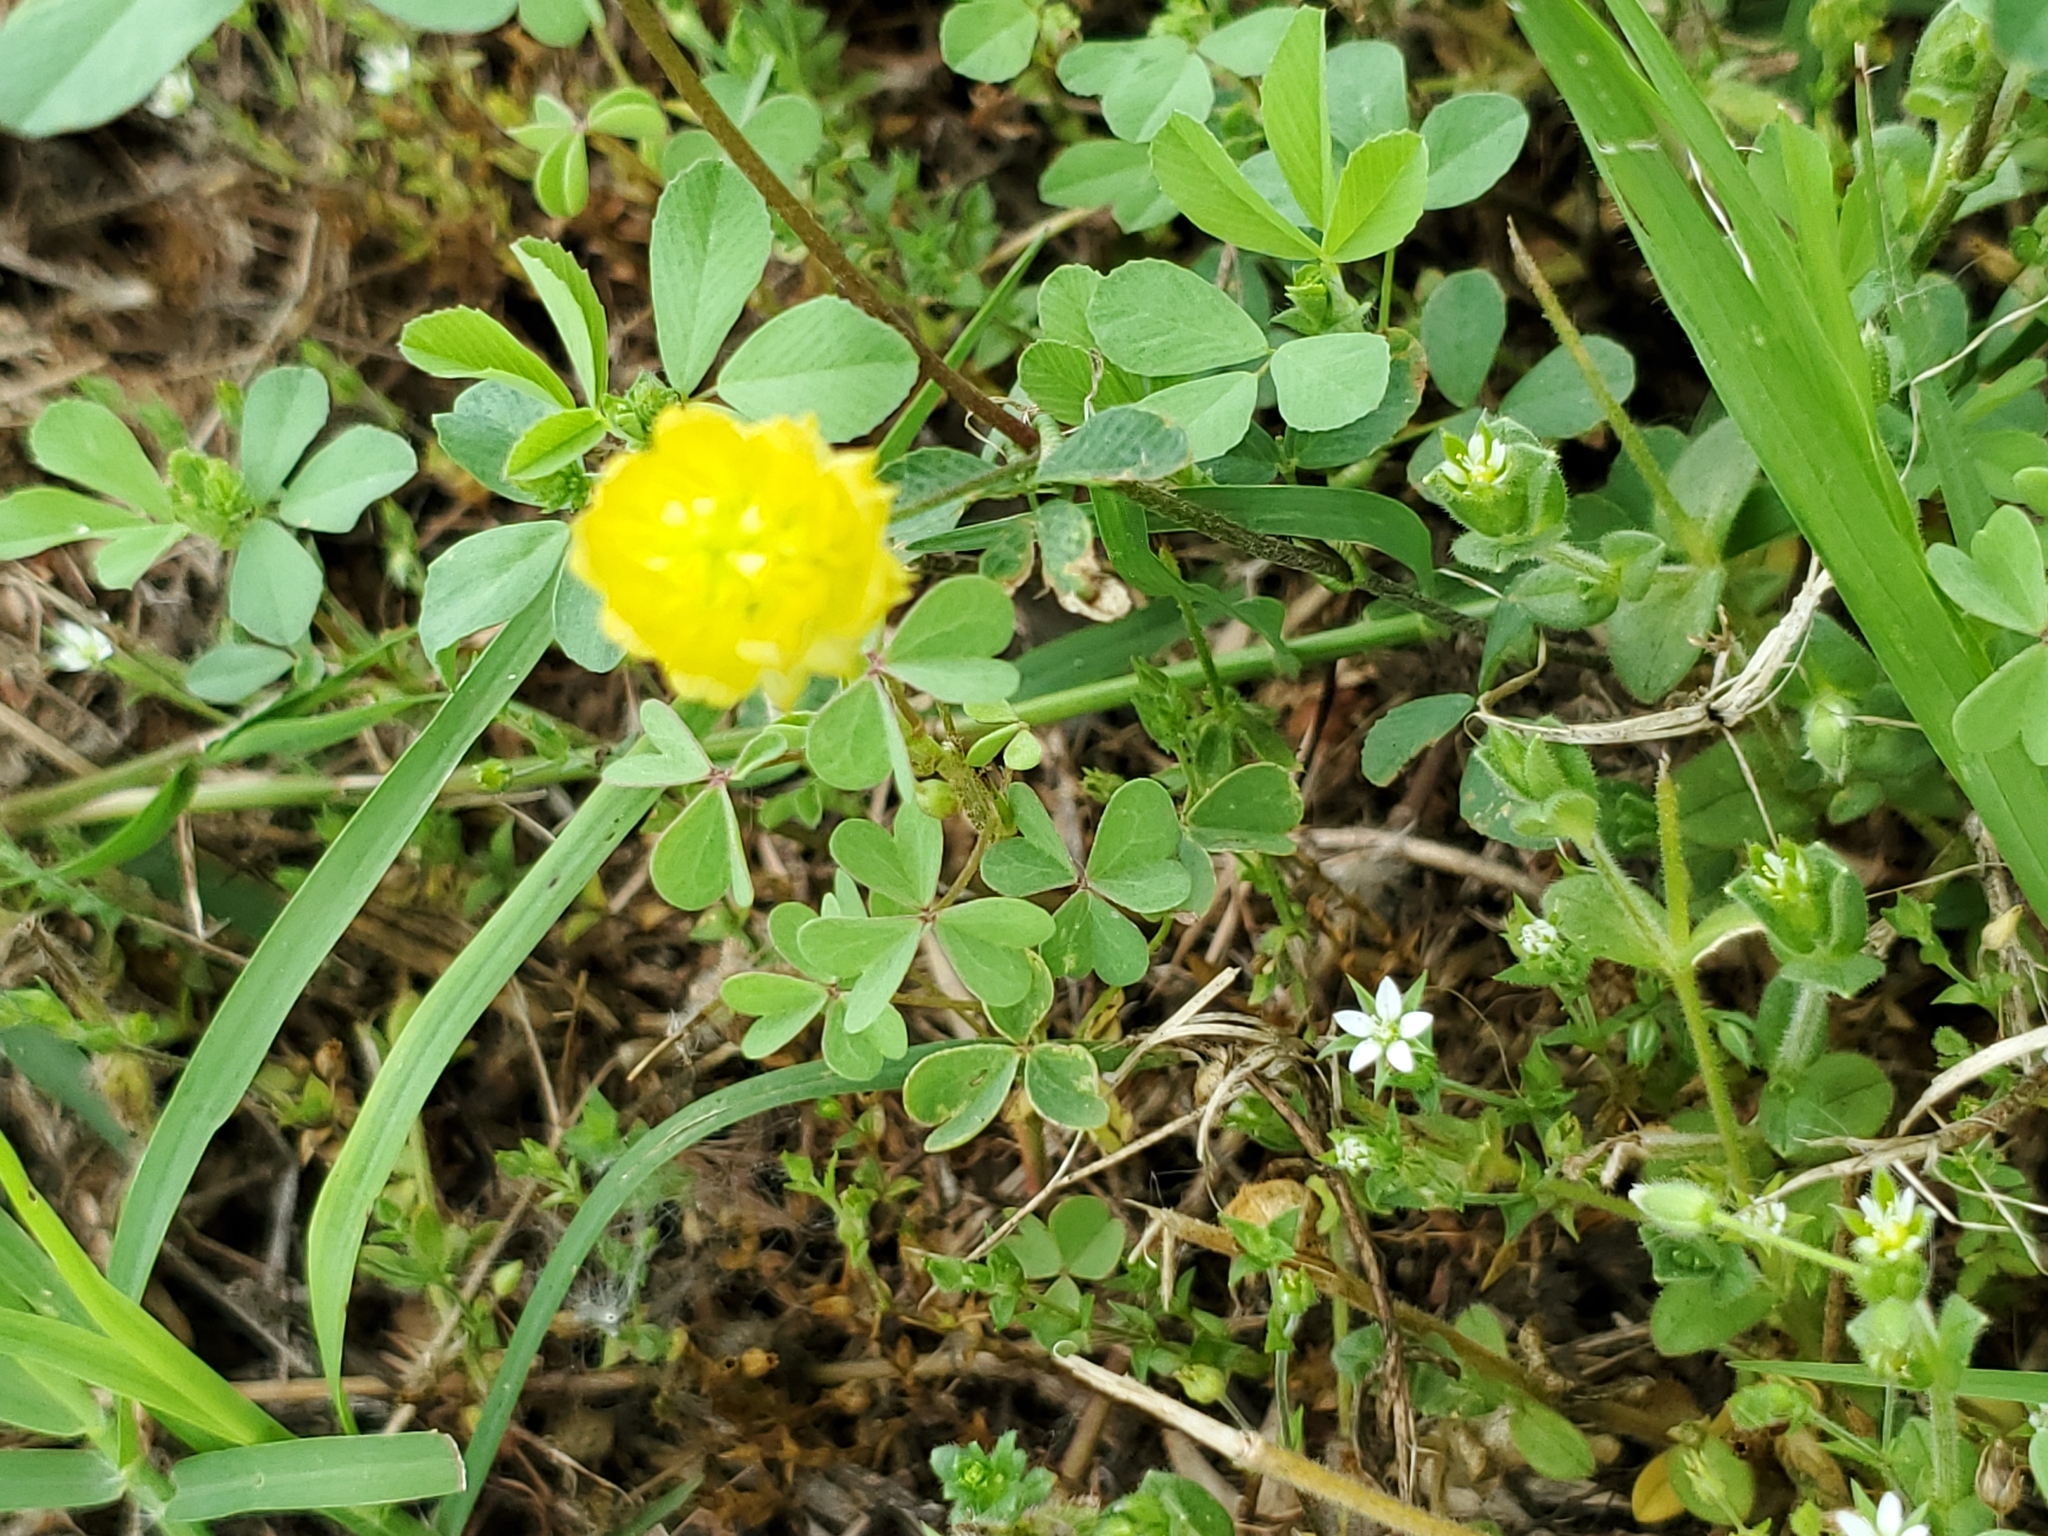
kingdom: Plantae
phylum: Tracheophyta
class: Magnoliopsida
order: Fabales
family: Fabaceae
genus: Trifolium
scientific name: Trifolium campestre
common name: Field clover
